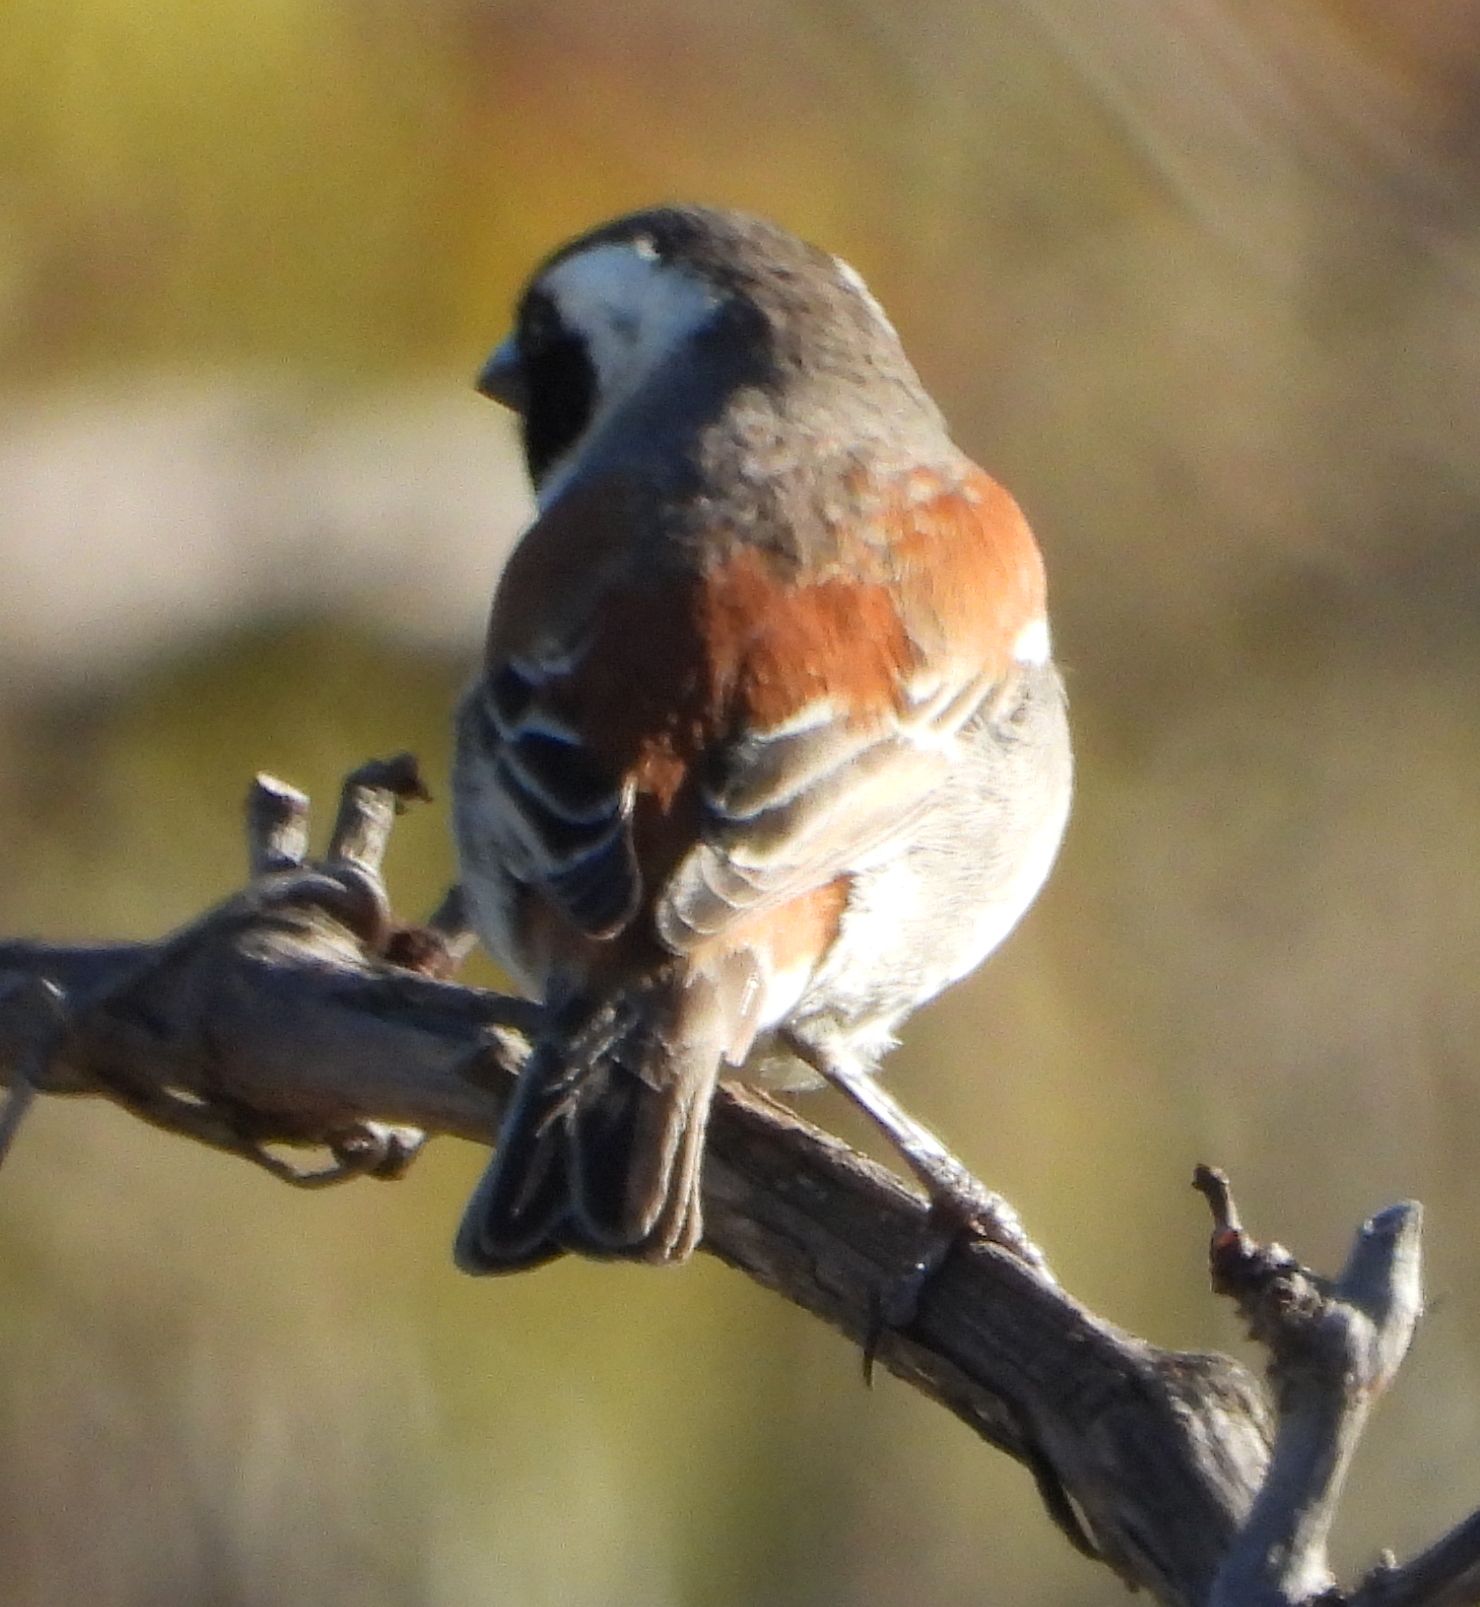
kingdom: Animalia
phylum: Chordata
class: Aves
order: Passeriformes
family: Passeridae
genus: Passer
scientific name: Passer melanurus
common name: Cape sparrow
